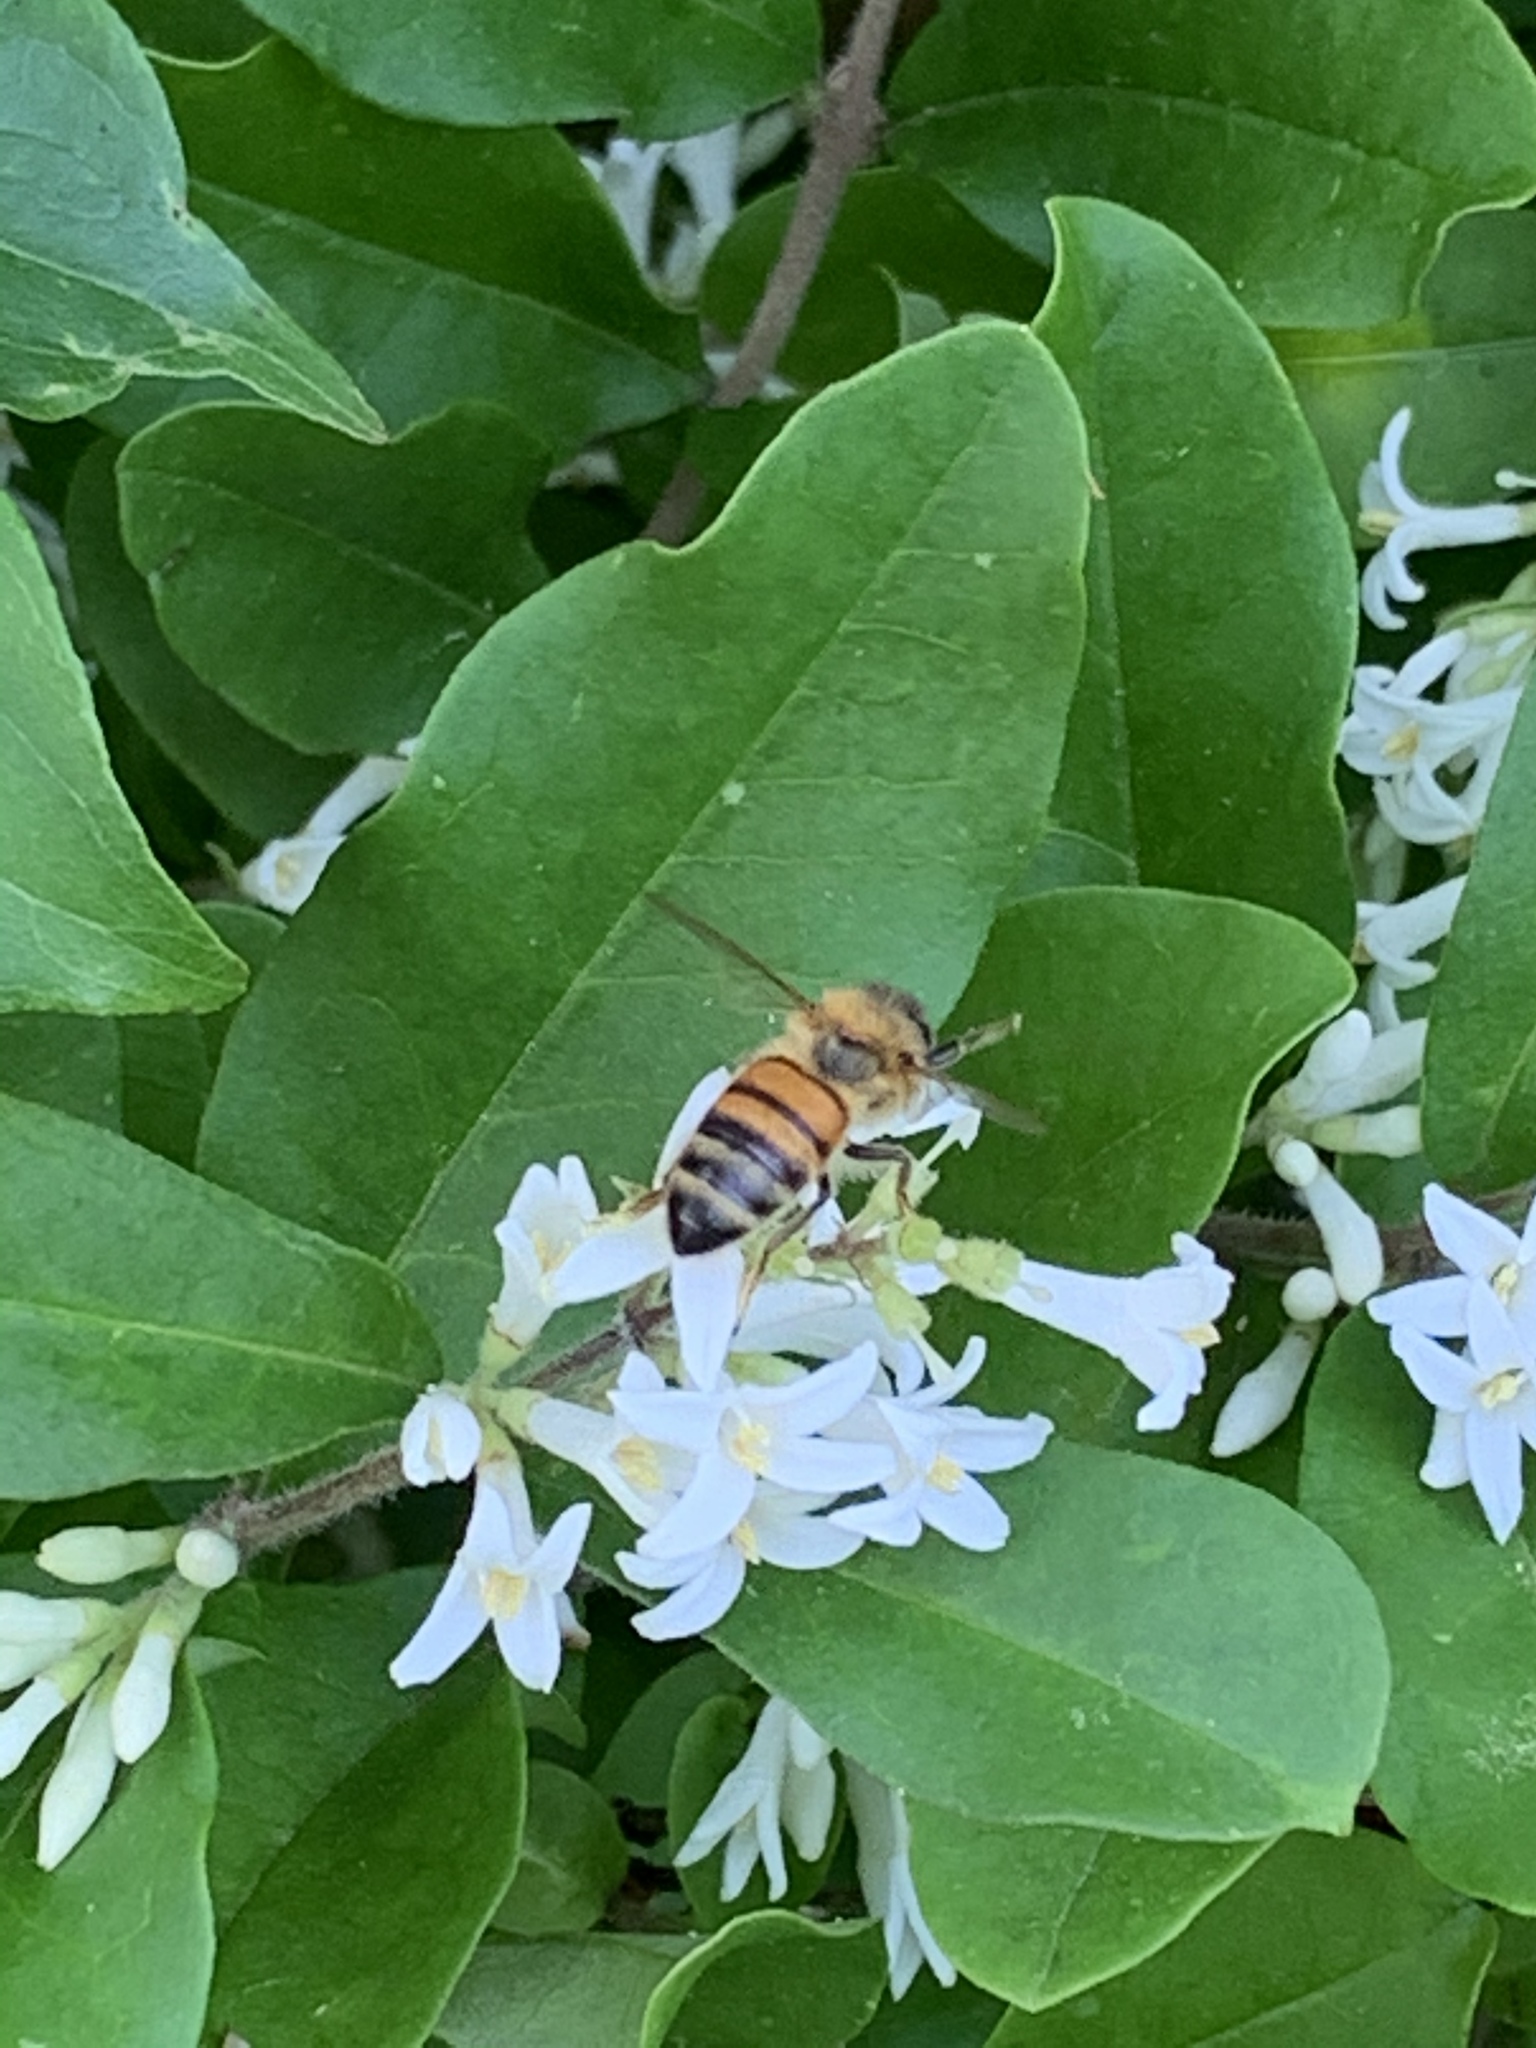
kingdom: Animalia
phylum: Arthropoda
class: Insecta
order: Hymenoptera
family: Apidae
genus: Apis
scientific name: Apis mellifera
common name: Honey bee
